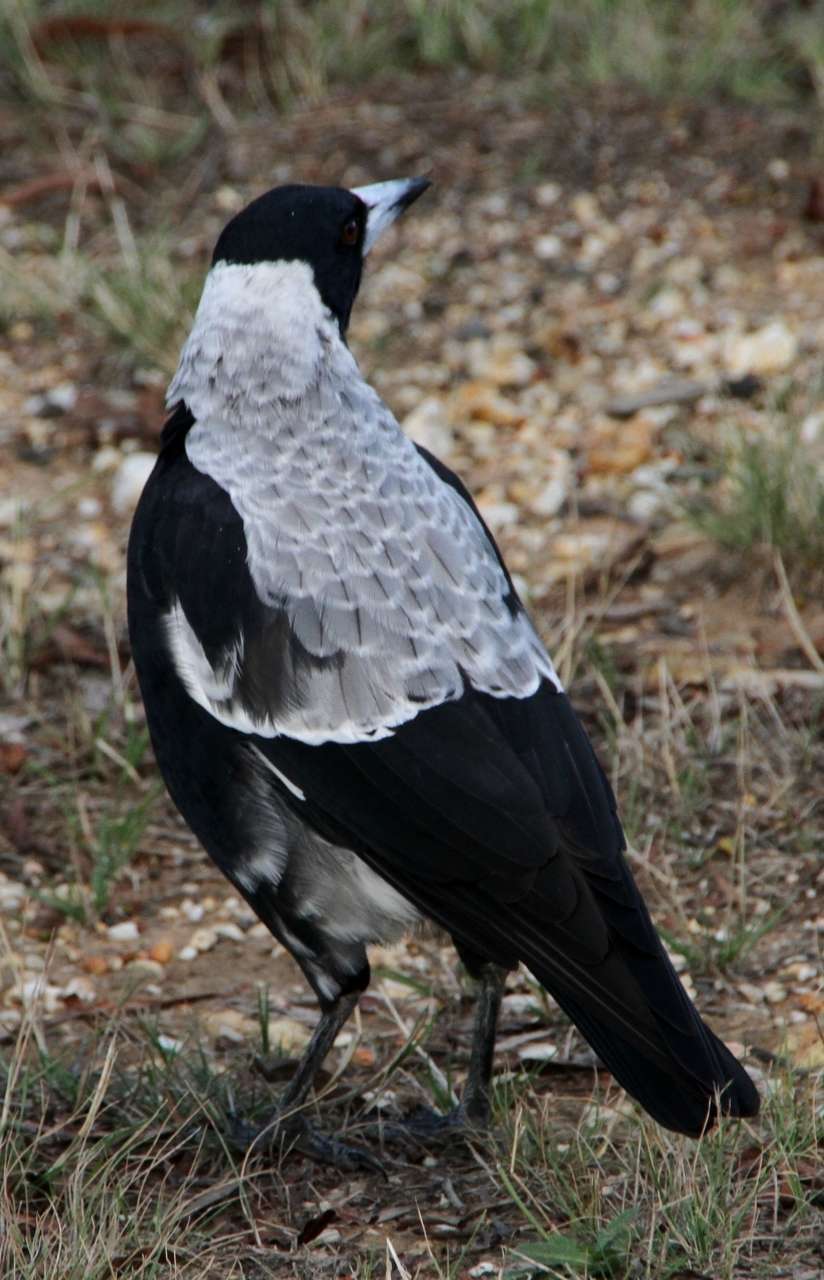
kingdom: Animalia
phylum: Chordata
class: Aves
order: Passeriformes
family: Cracticidae
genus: Gymnorhina
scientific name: Gymnorhina tibicen
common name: Australian magpie
